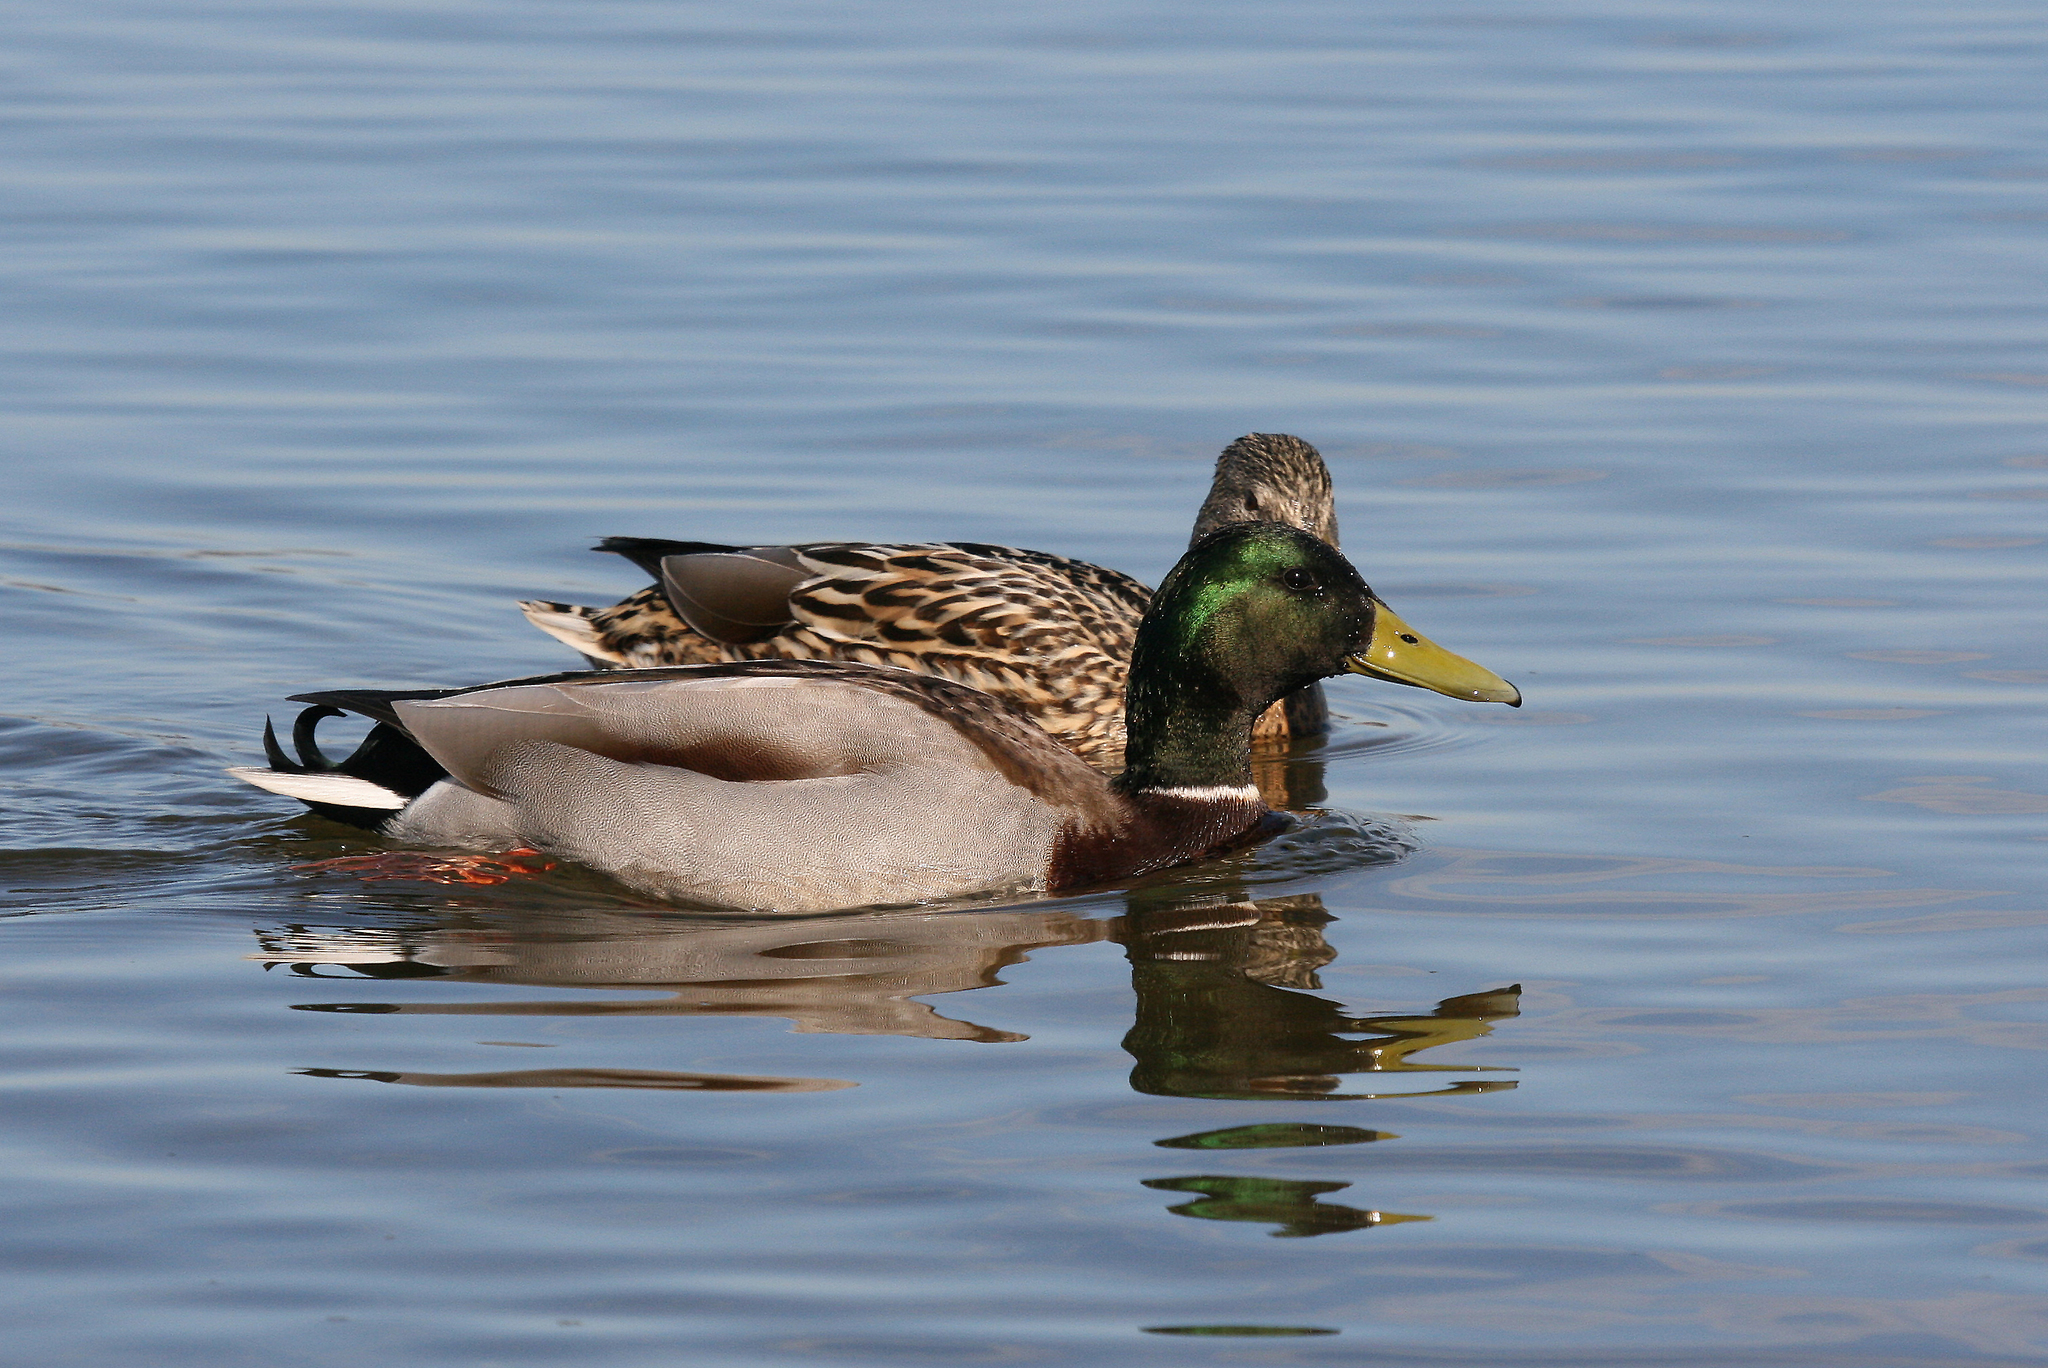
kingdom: Animalia
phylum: Chordata
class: Aves
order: Anseriformes
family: Anatidae
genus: Anas
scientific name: Anas platyrhynchos
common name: Mallard
